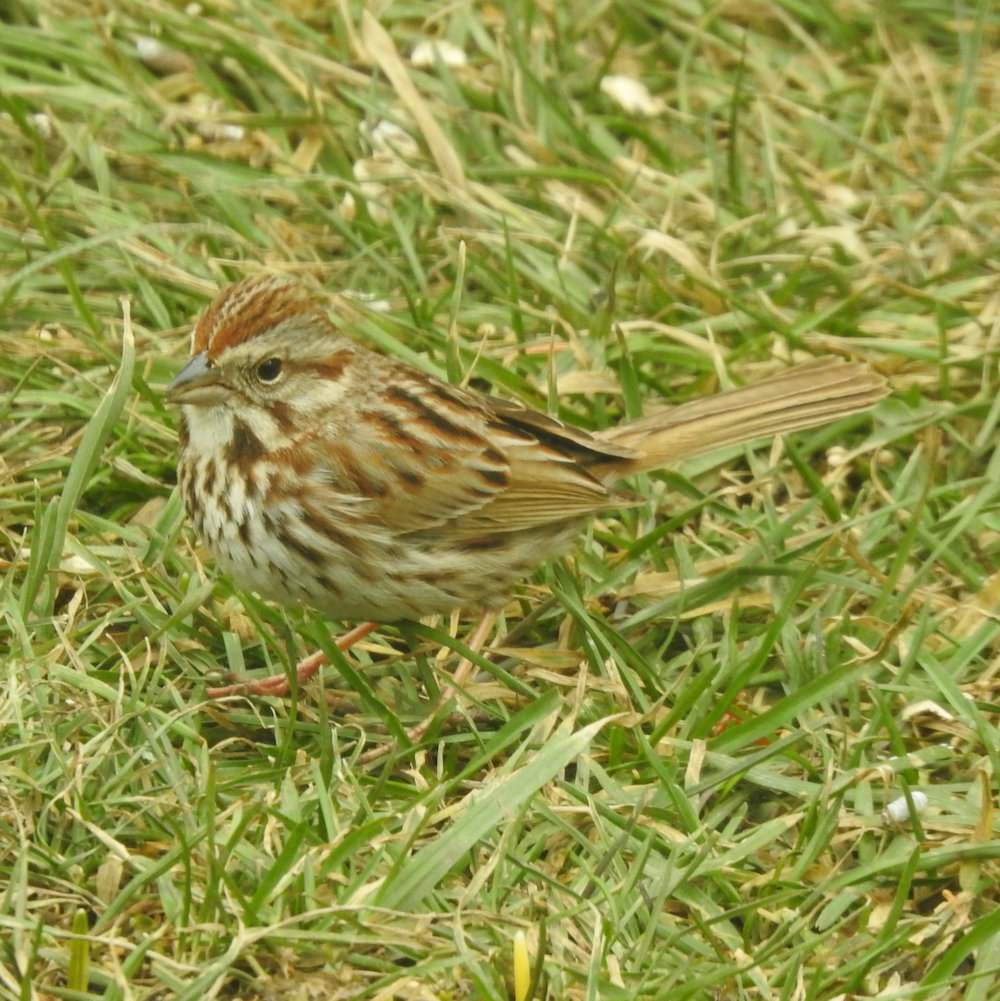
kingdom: Animalia
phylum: Chordata
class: Aves
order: Passeriformes
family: Passerellidae
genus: Melospiza
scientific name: Melospiza melodia
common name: Song sparrow
